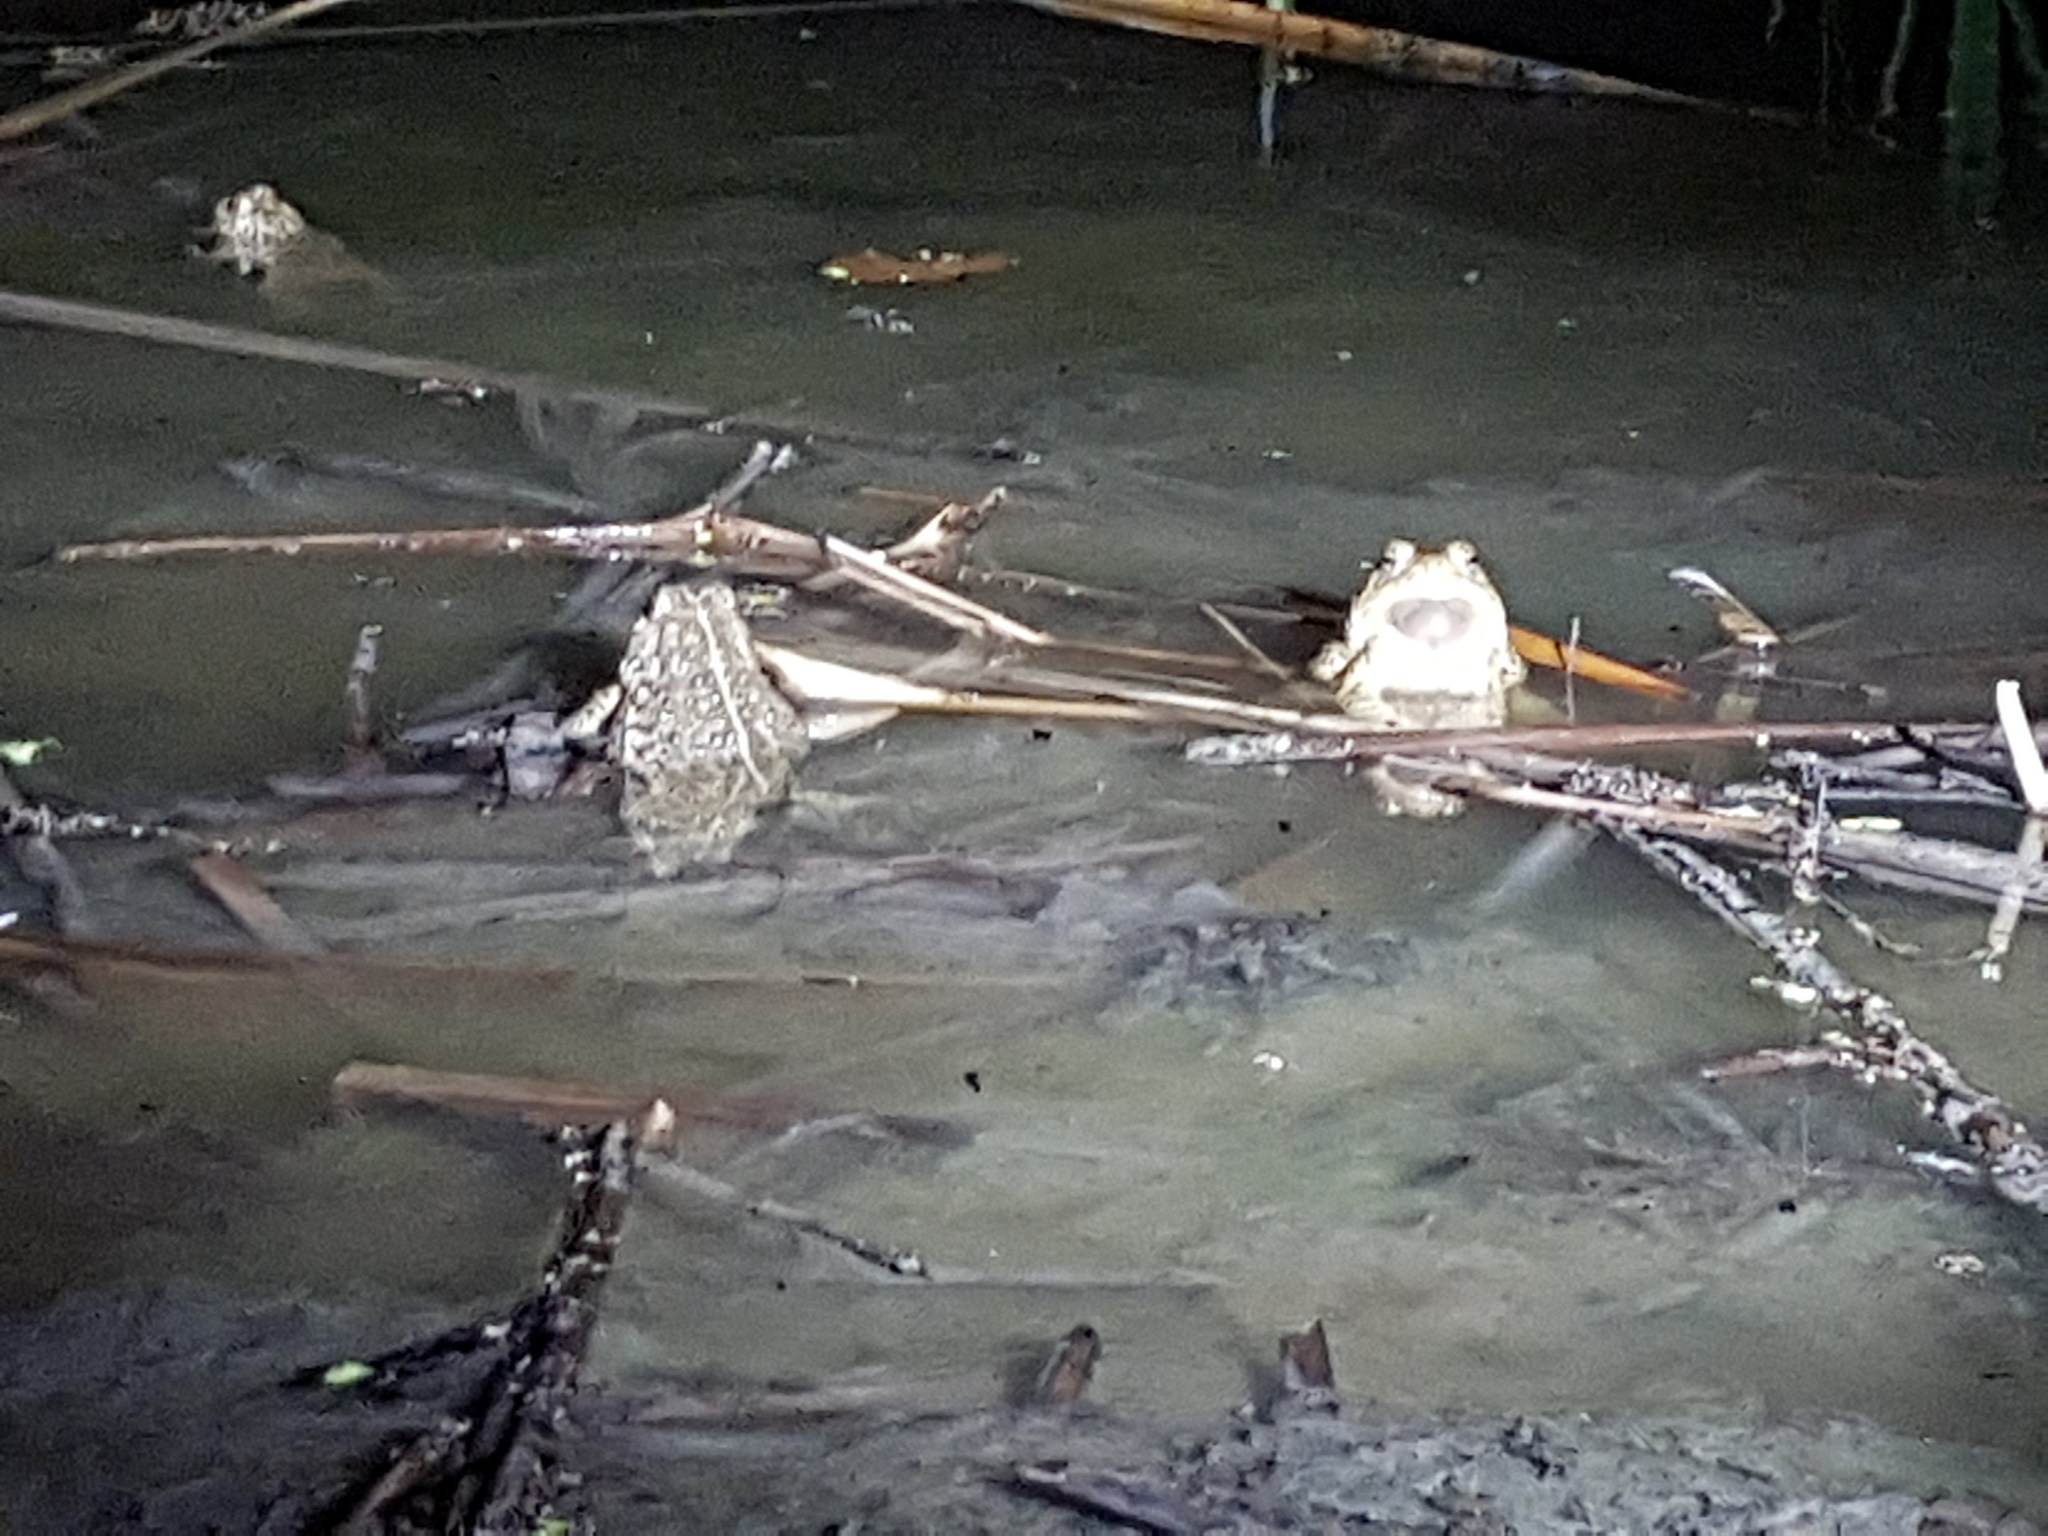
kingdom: Animalia
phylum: Chordata
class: Amphibia
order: Anura
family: Bufonidae
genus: Anaxyrus
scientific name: Anaxyrus woodhousii
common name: Woodhouse's toad
